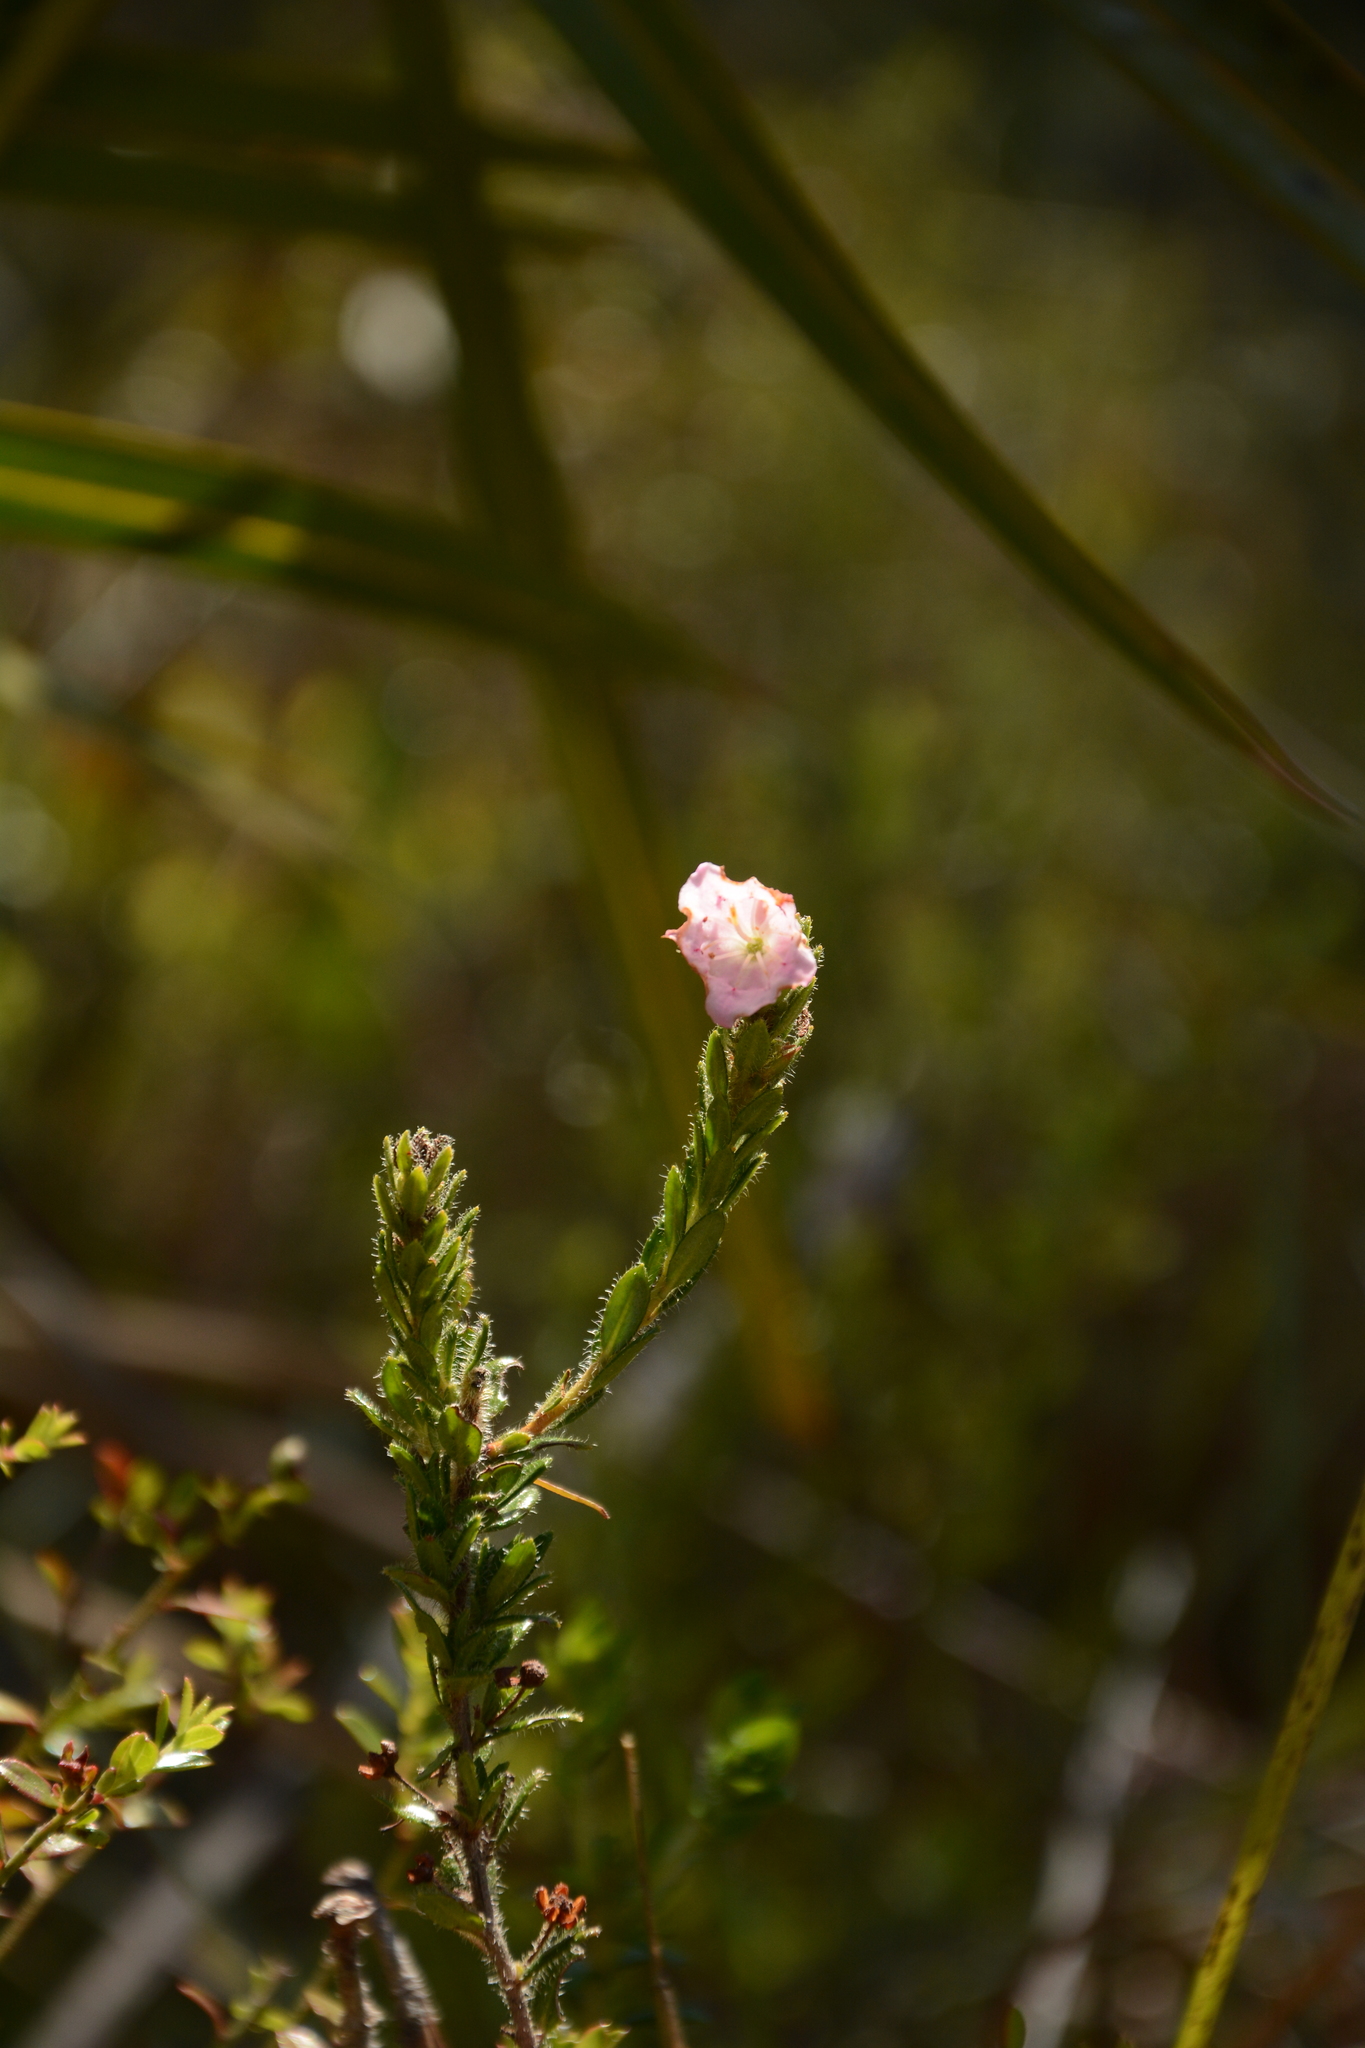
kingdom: Plantae
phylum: Tracheophyta
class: Magnoliopsida
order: Ericales
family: Ericaceae
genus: Kalmia
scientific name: Kalmia hirsuta
